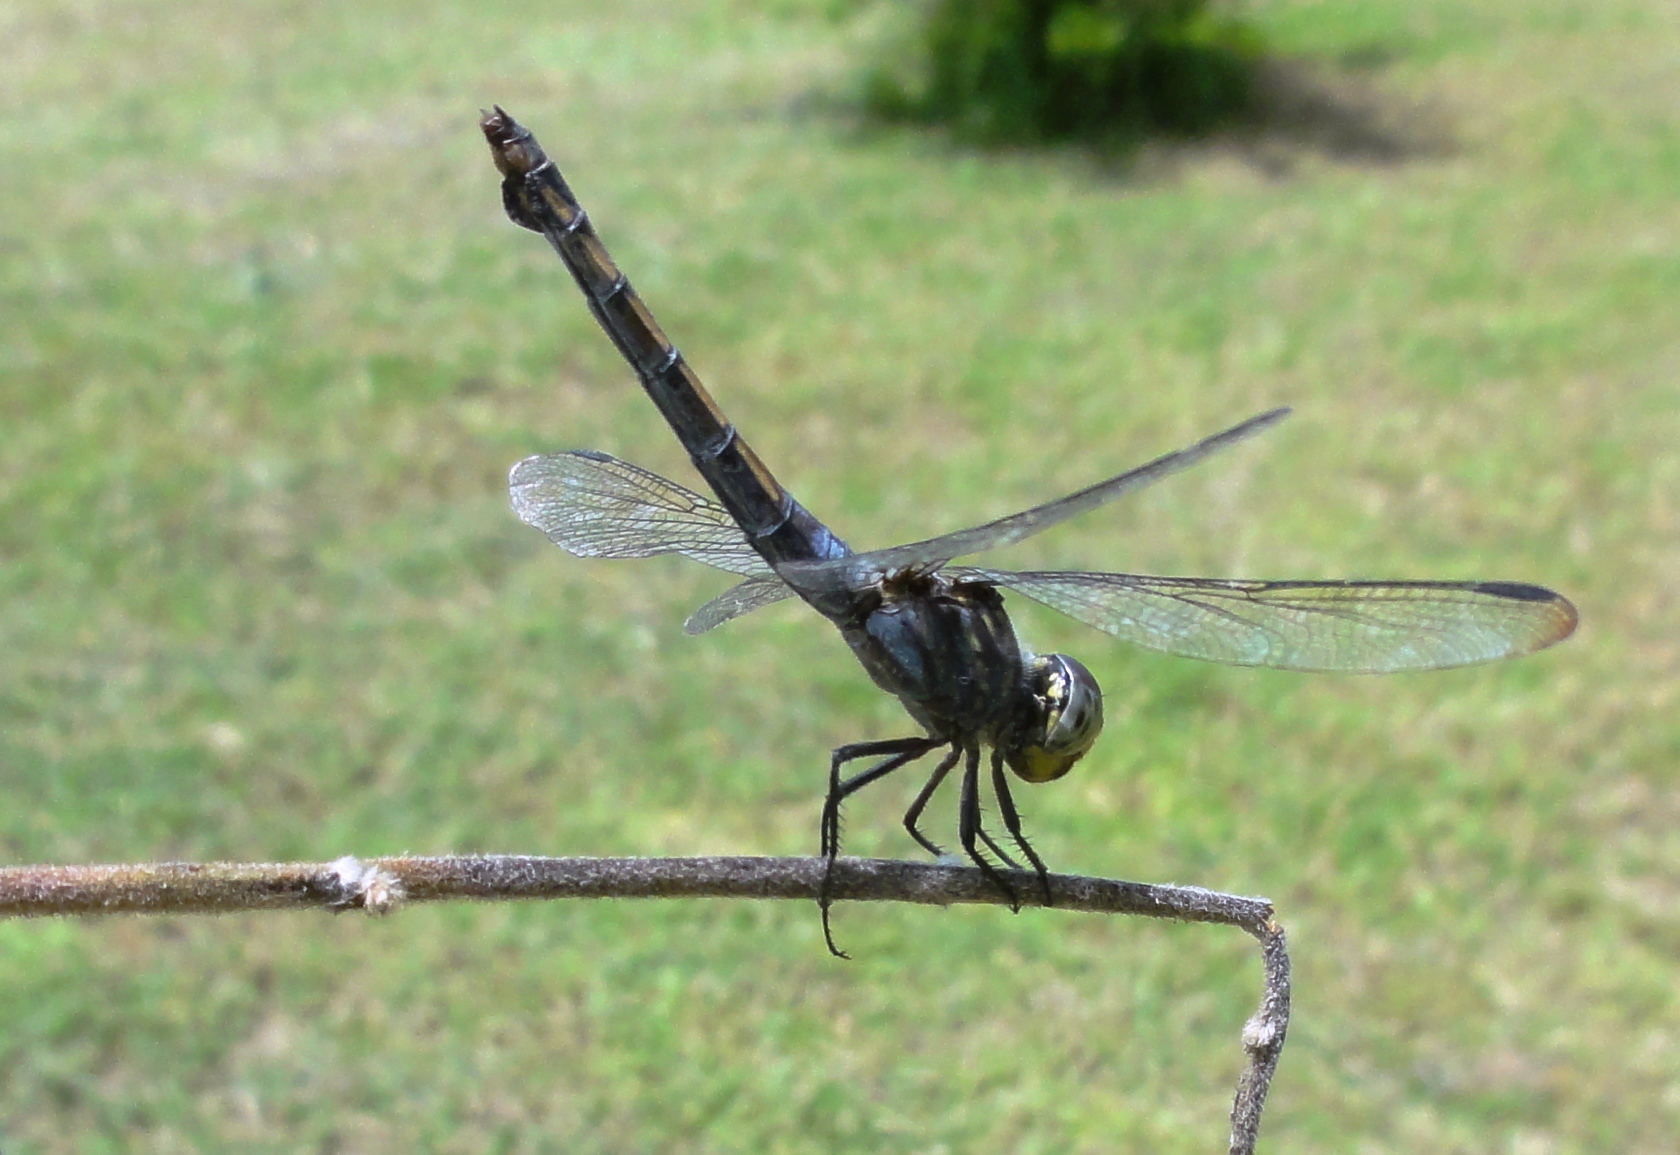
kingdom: Animalia
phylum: Arthropoda
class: Insecta
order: Odonata
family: Libellulidae
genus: Potamarcha
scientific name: Potamarcha congener
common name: Blue chaser
